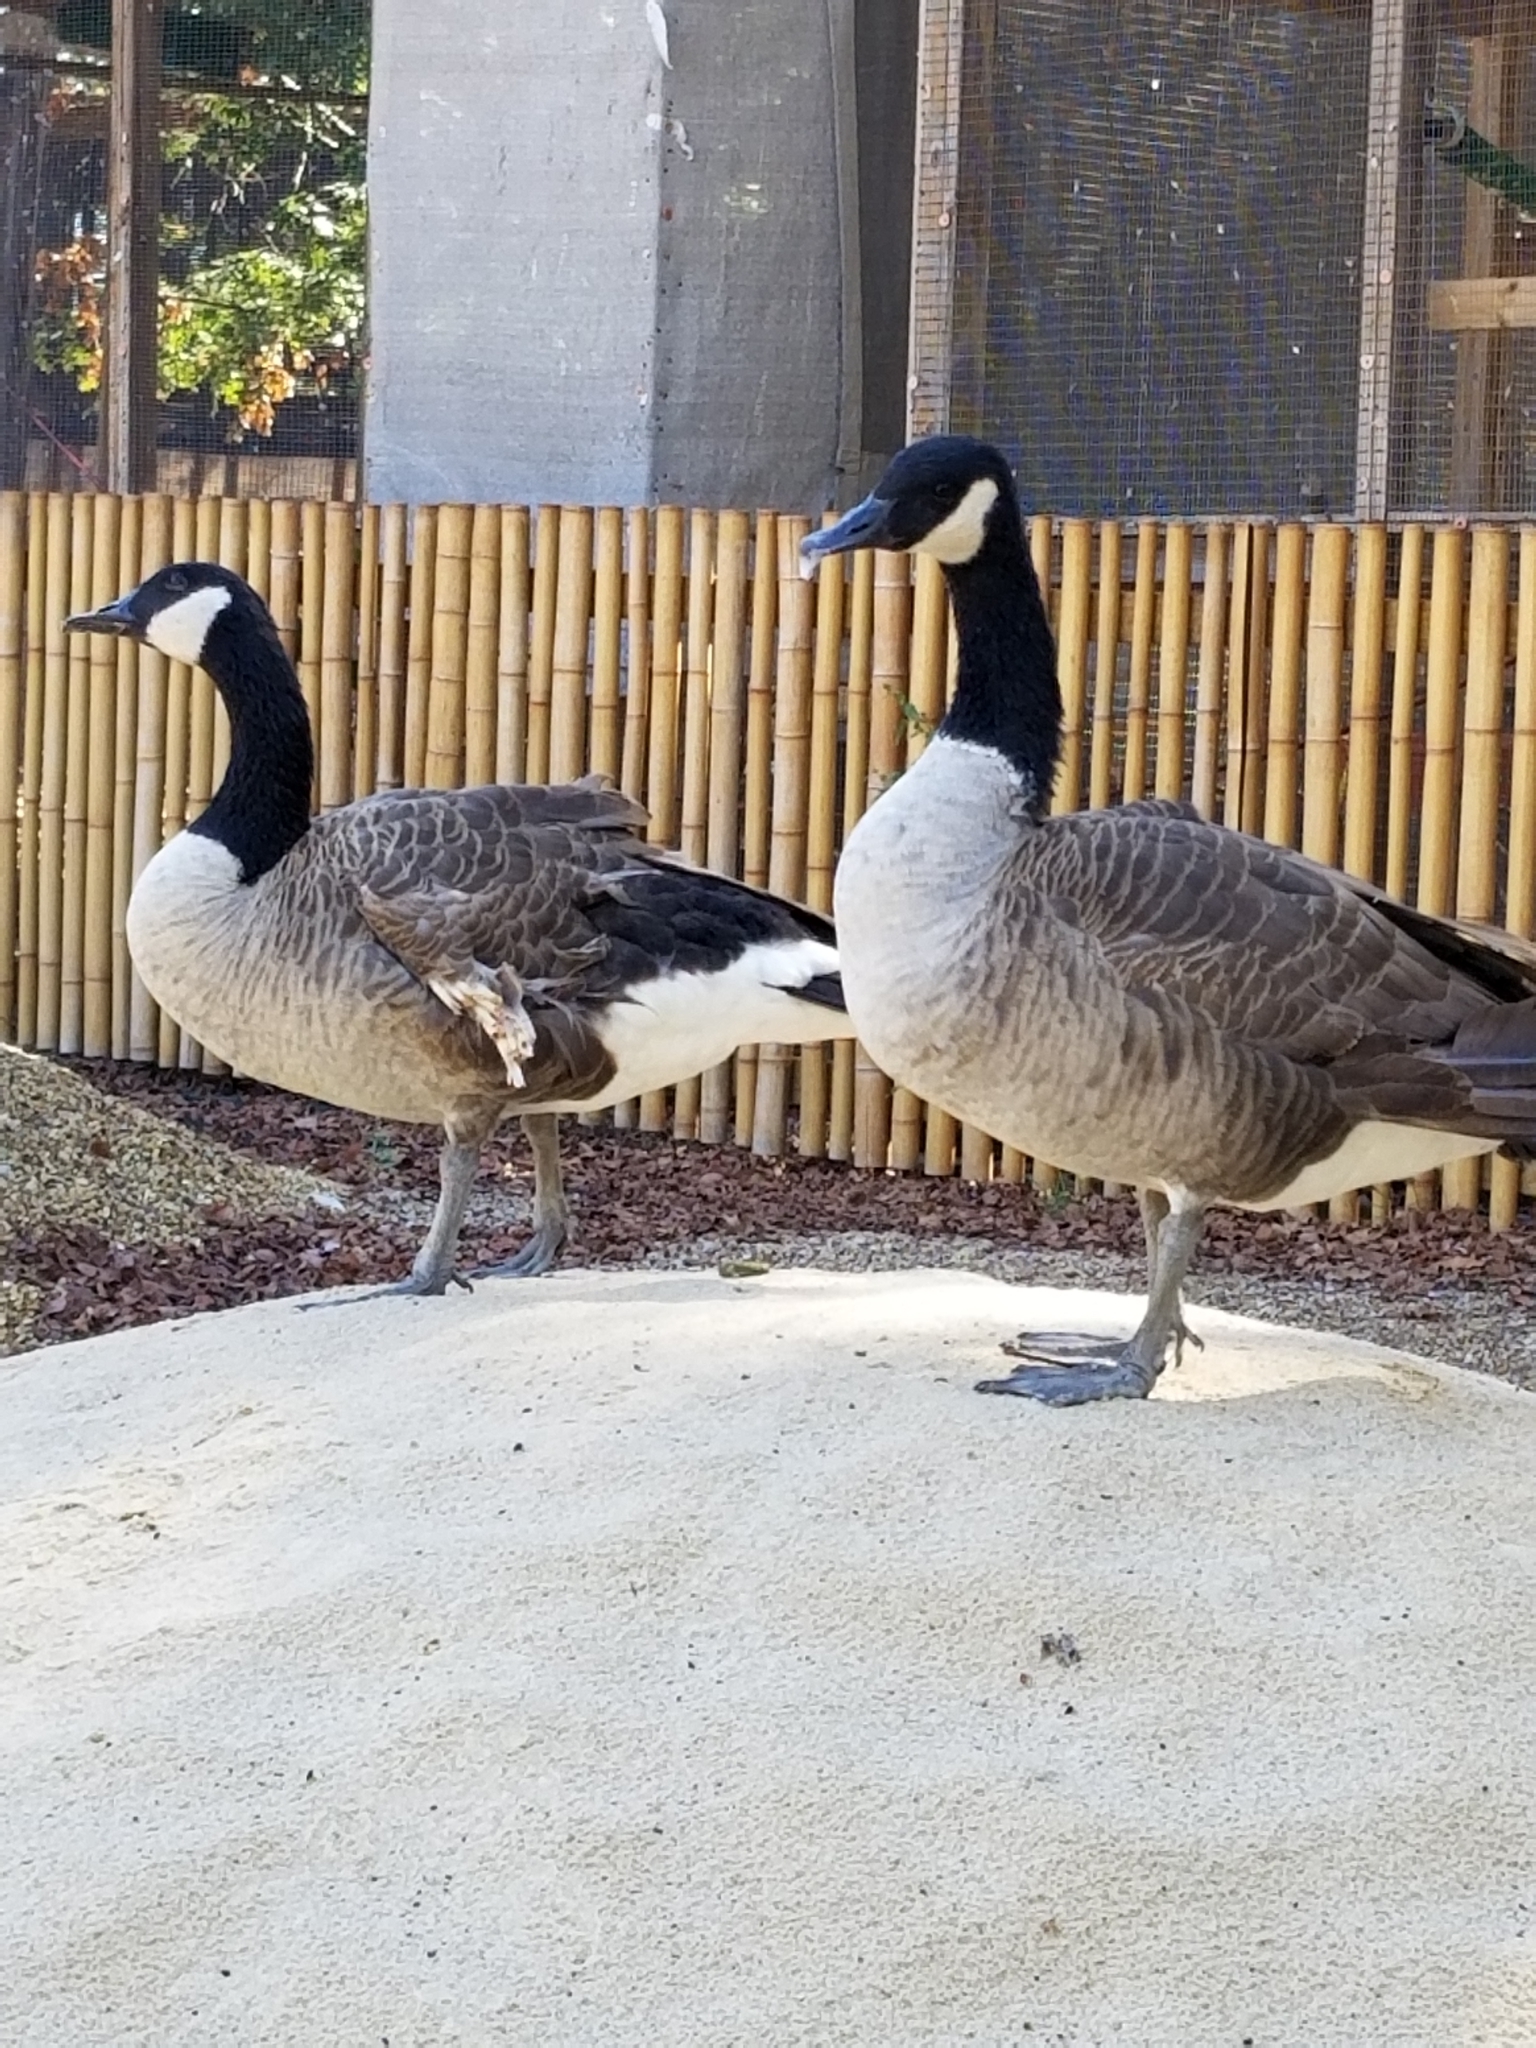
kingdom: Animalia
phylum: Chordata
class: Aves
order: Anseriformes
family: Anatidae
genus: Branta
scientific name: Branta canadensis
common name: Canada goose
